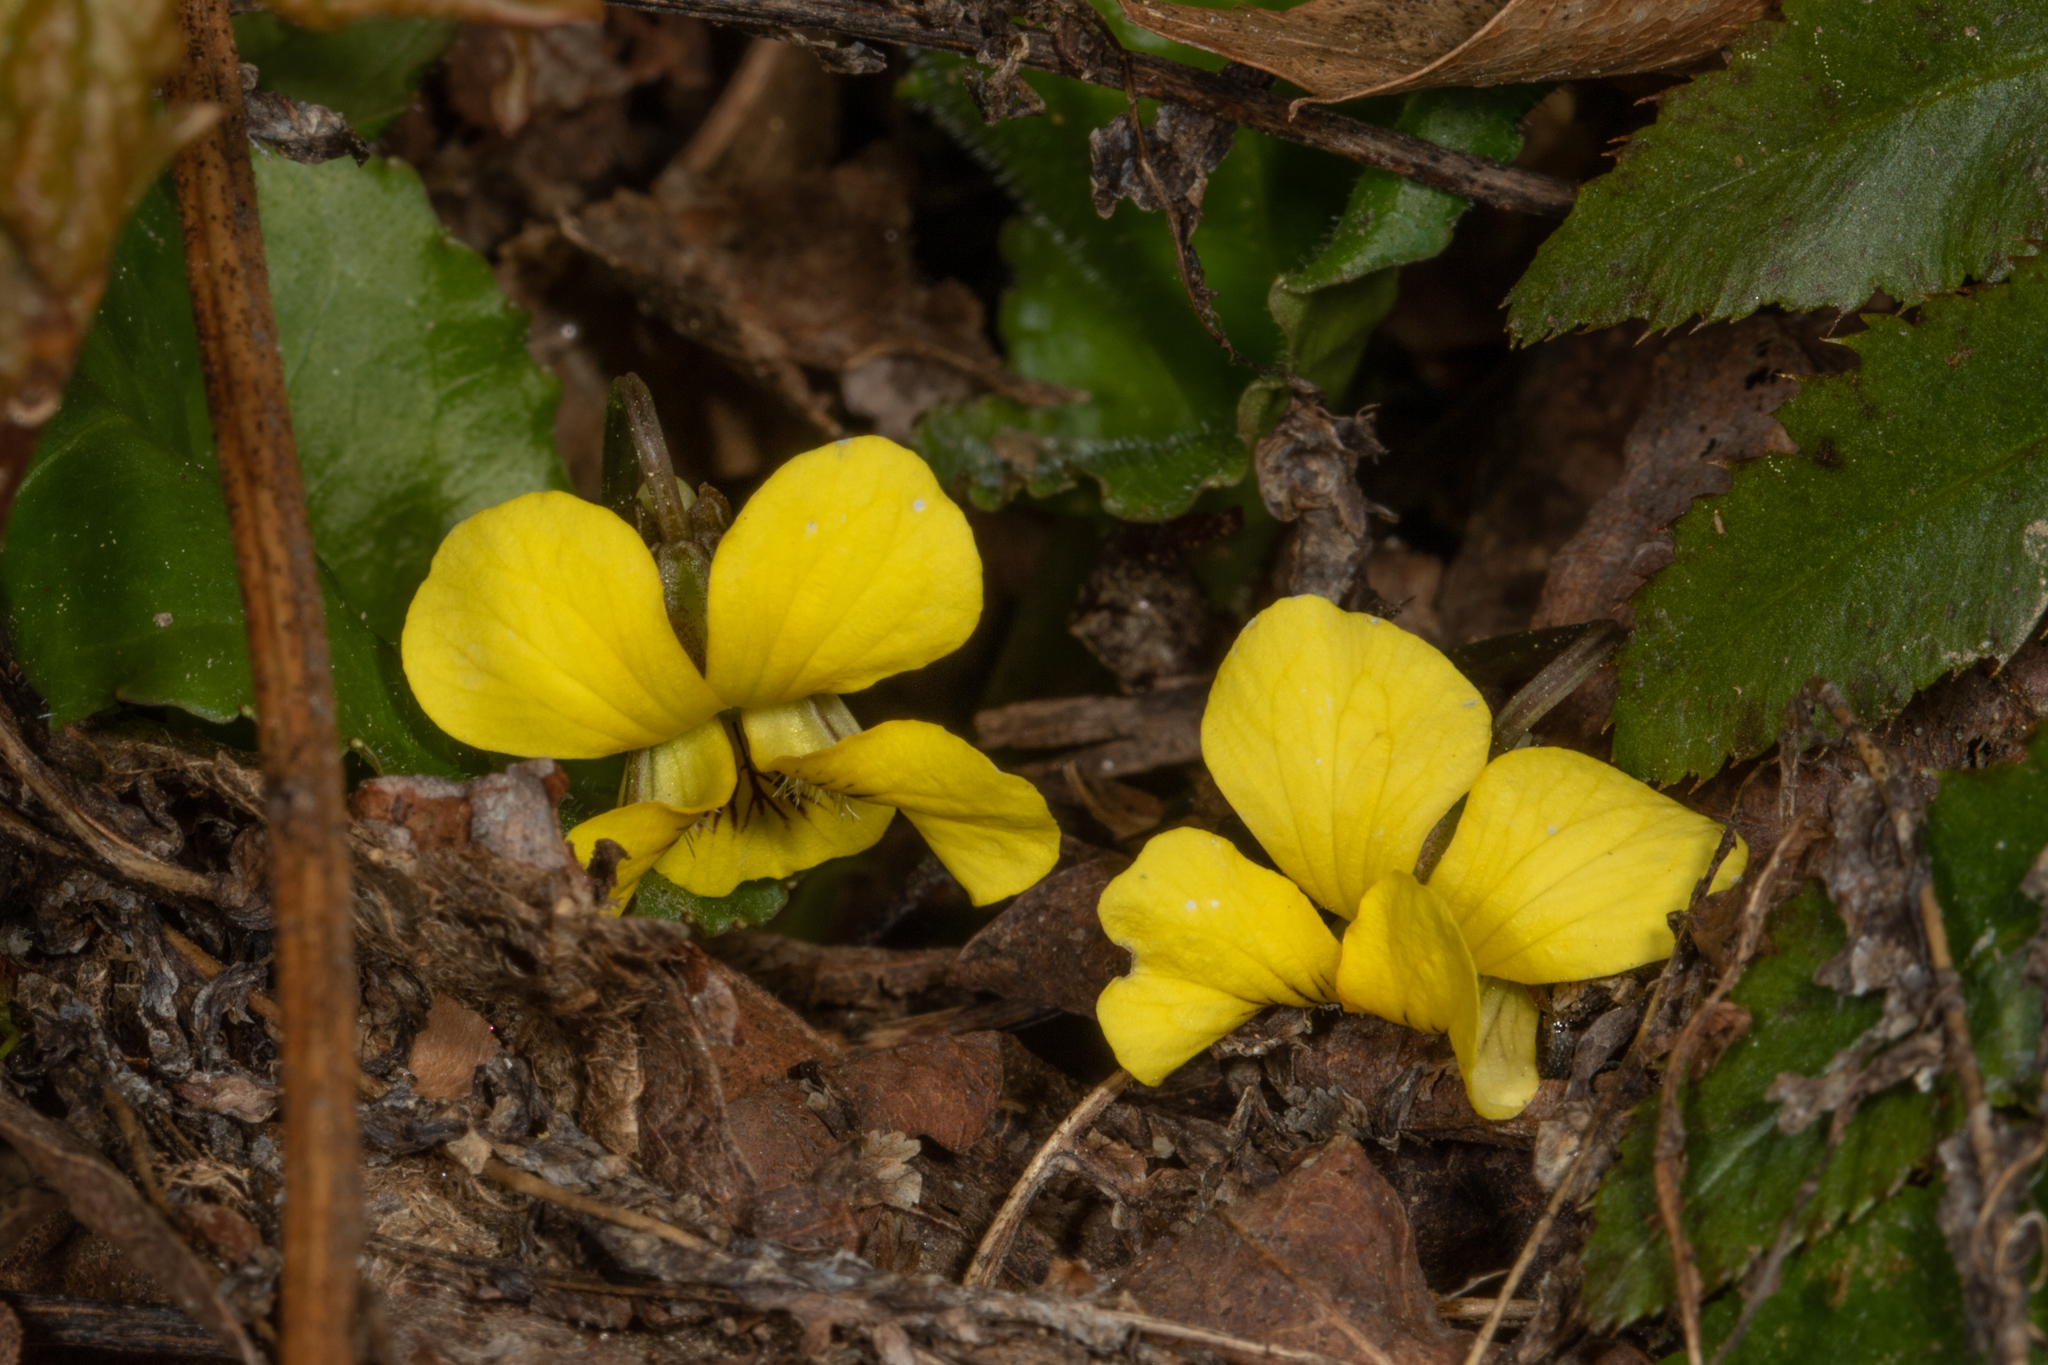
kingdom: Plantae
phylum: Tracheophyta
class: Magnoliopsida
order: Malpighiales
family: Violaceae
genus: Viola
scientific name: Viola rotundifolia
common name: Early yellow violet
